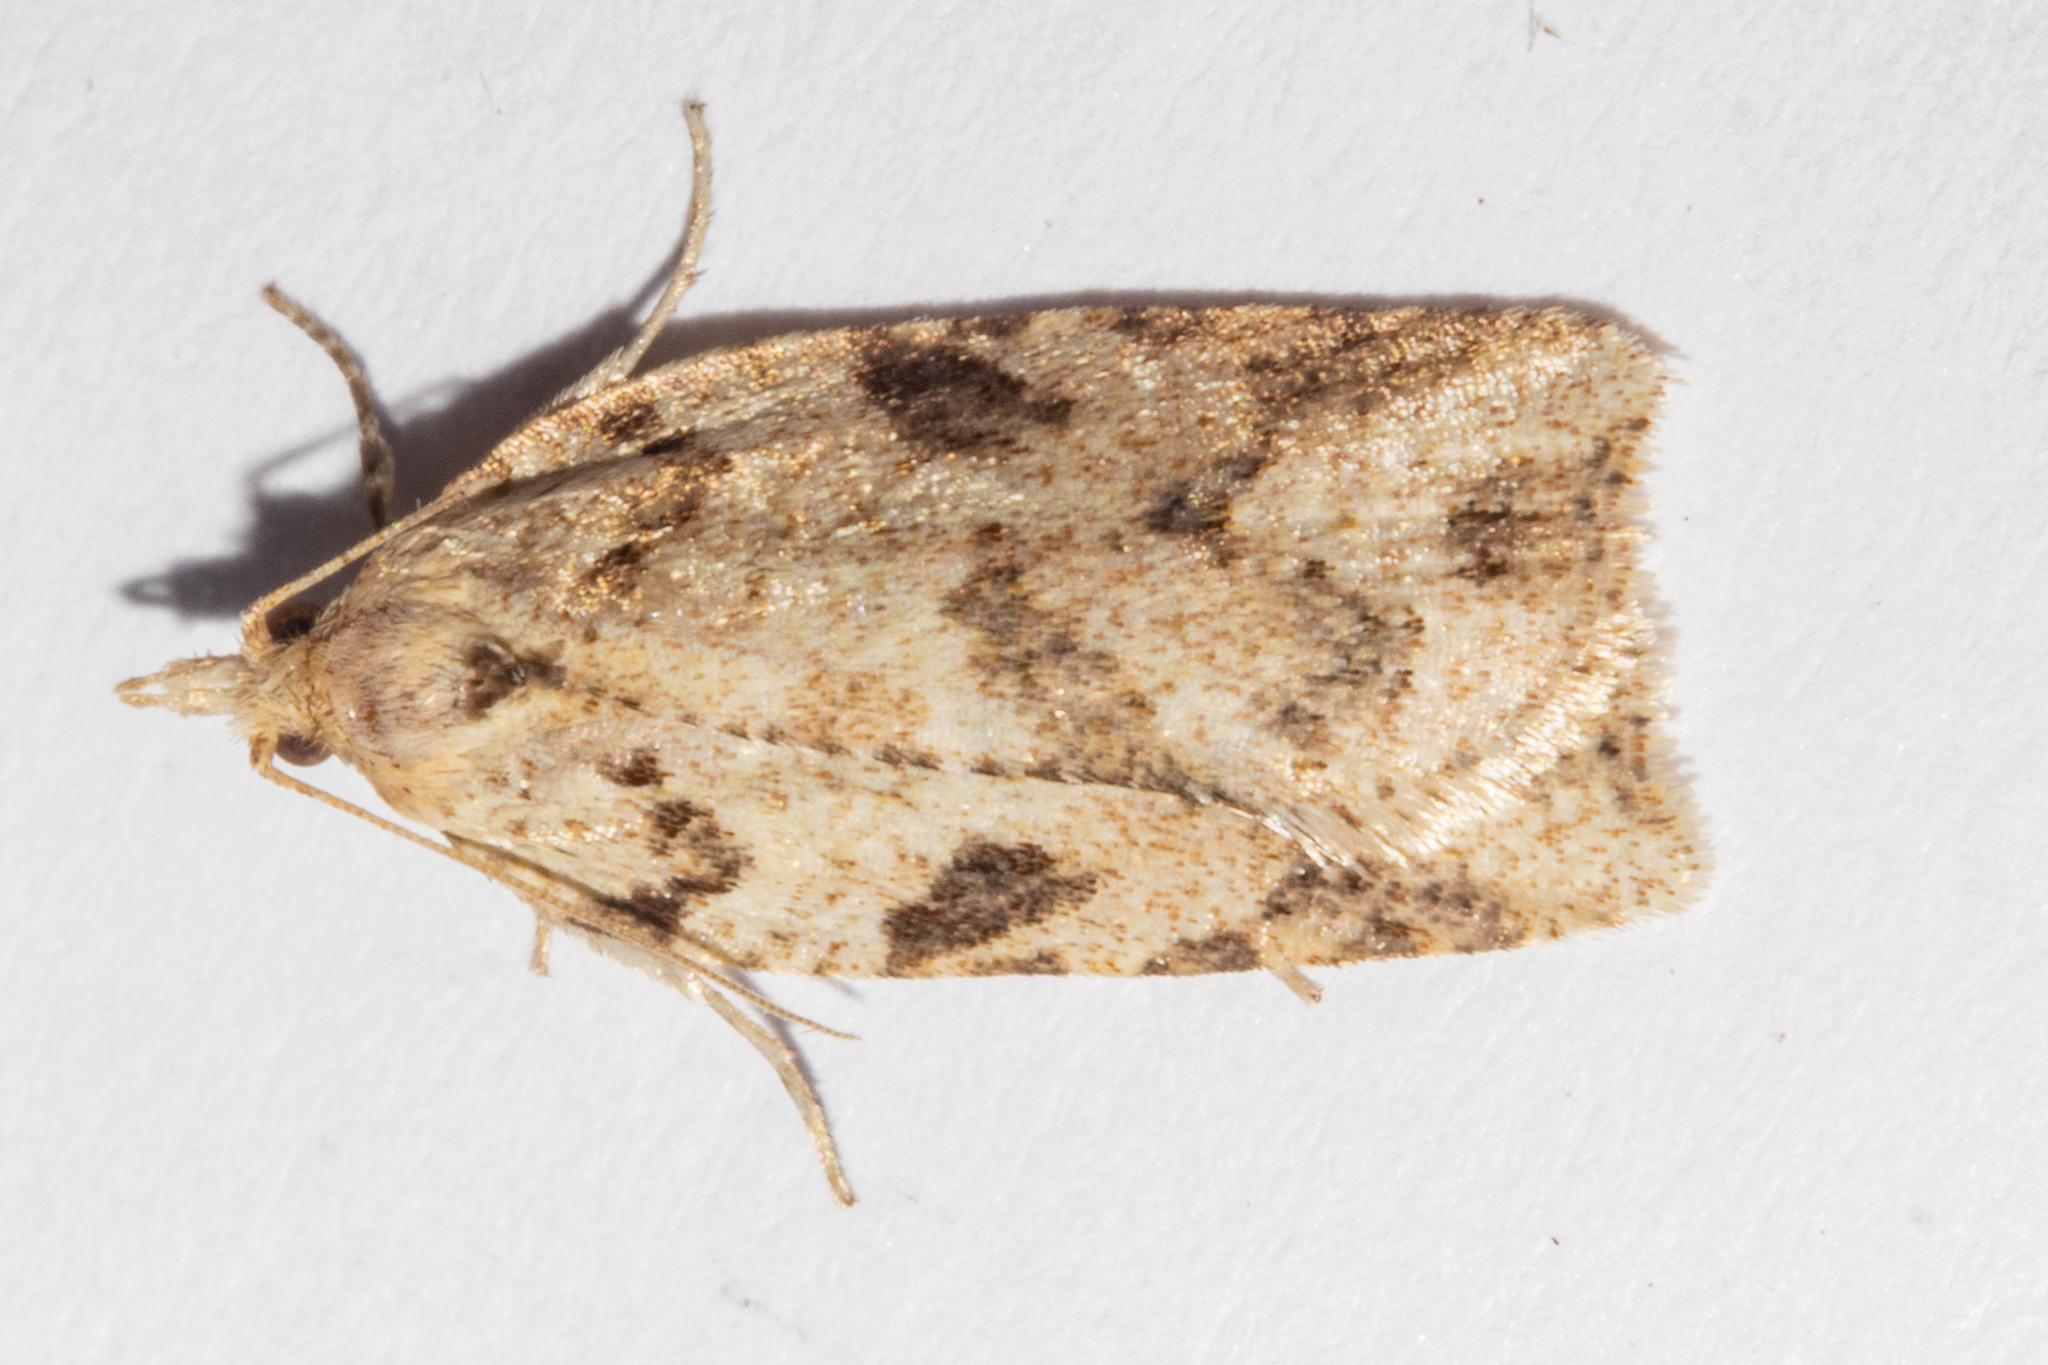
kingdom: Animalia
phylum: Arthropoda
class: Insecta
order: Lepidoptera
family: Tortricidae
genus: Ctenopseustis
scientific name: Ctenopseustis obliquana
